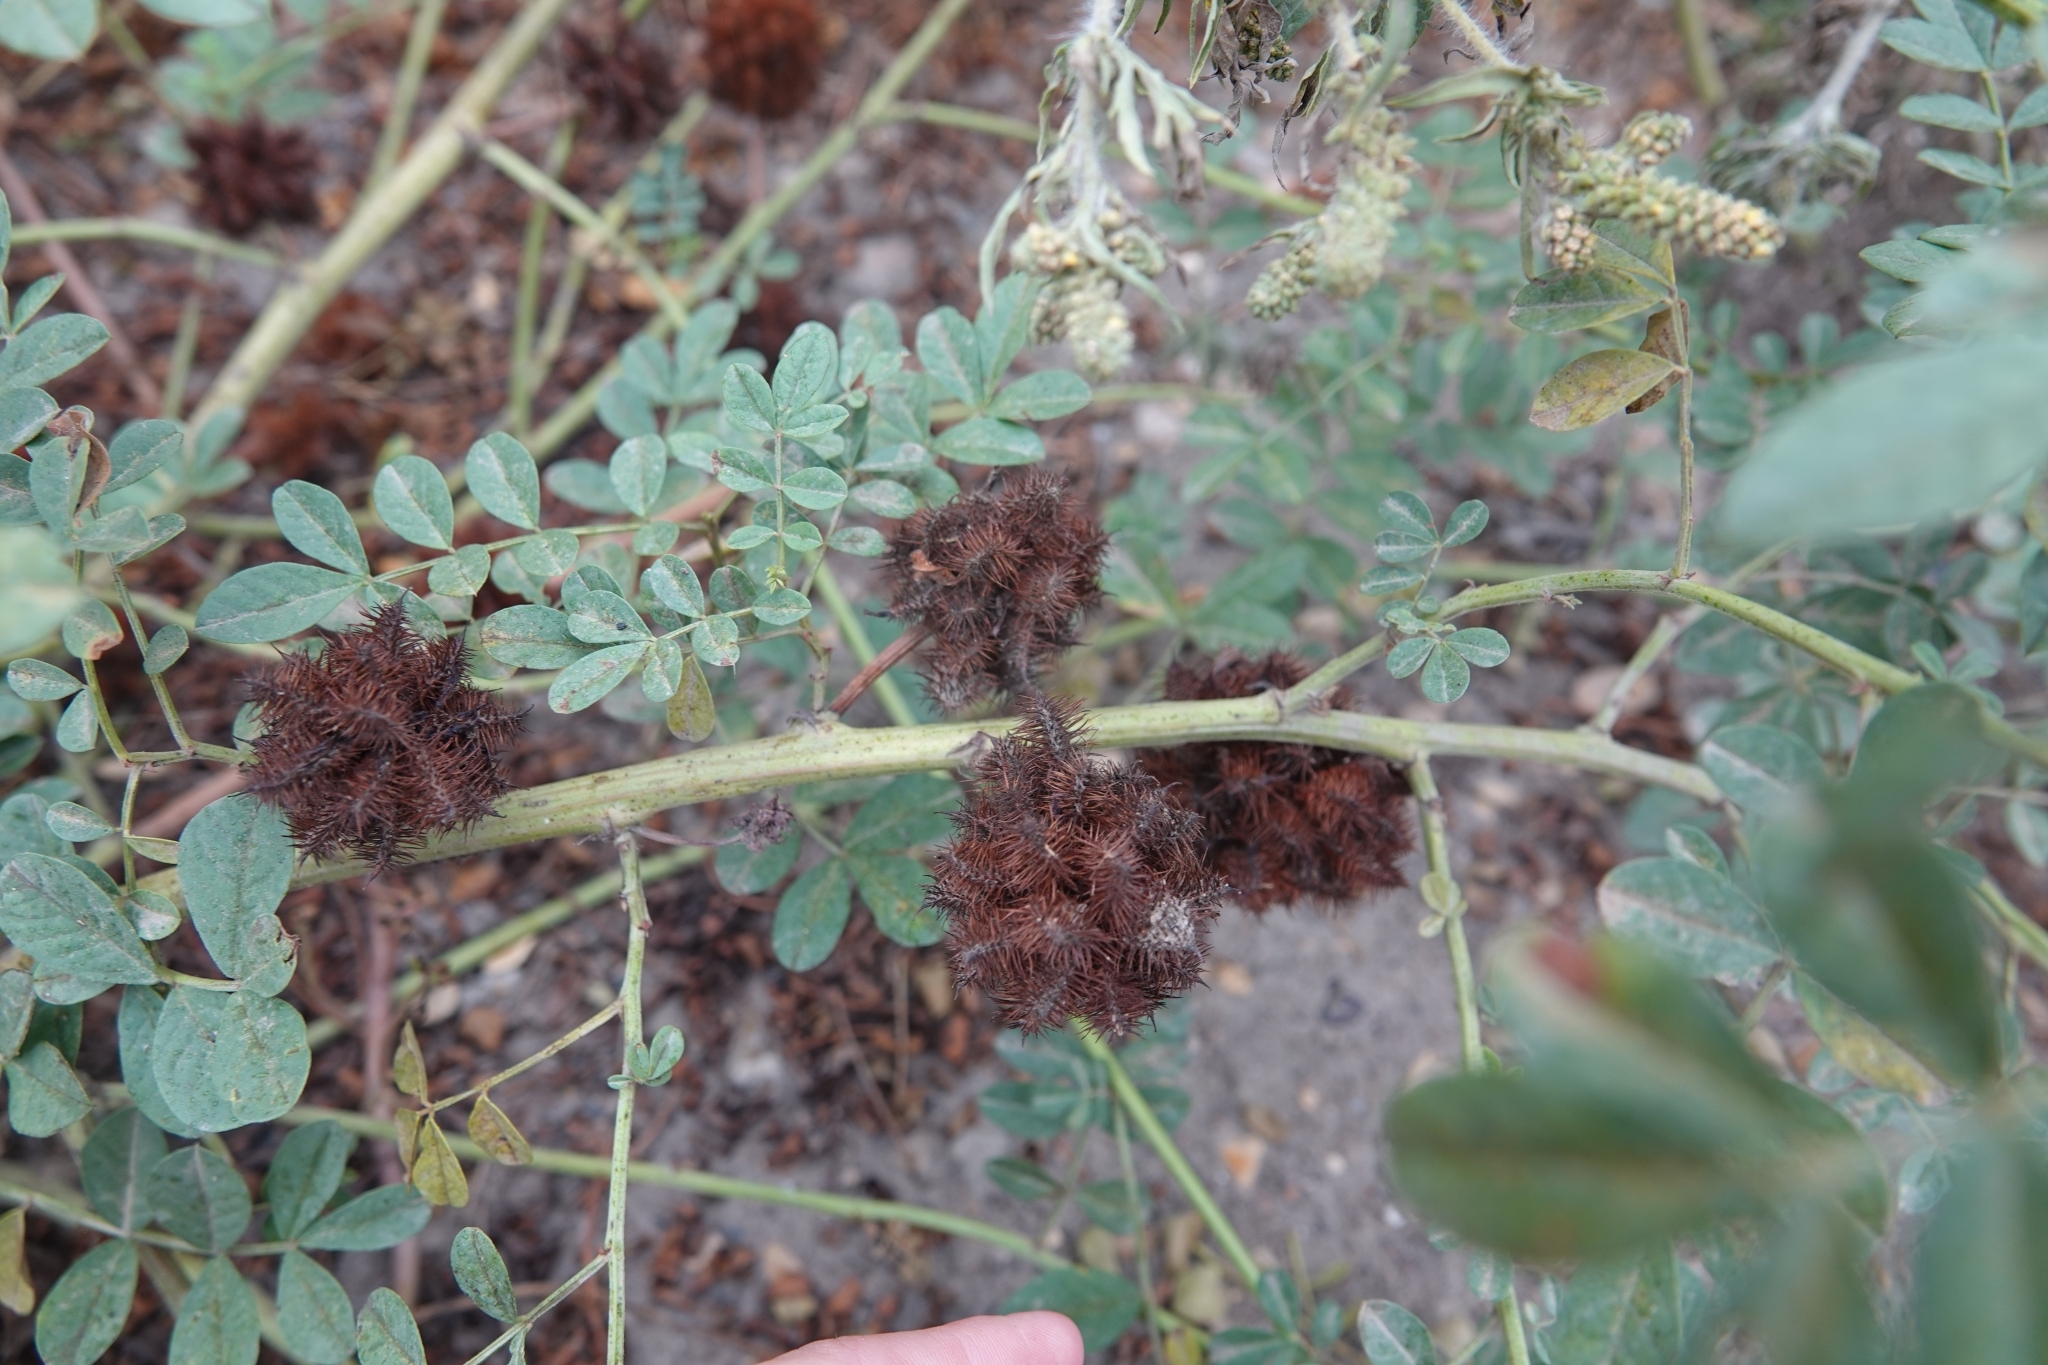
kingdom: Plantae
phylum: Tracheophyta
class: Magnoliopsida
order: Fabales
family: Fabaceae
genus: Glycyrrhiza
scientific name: Glycyrrhiza echinata
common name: German liquorice
